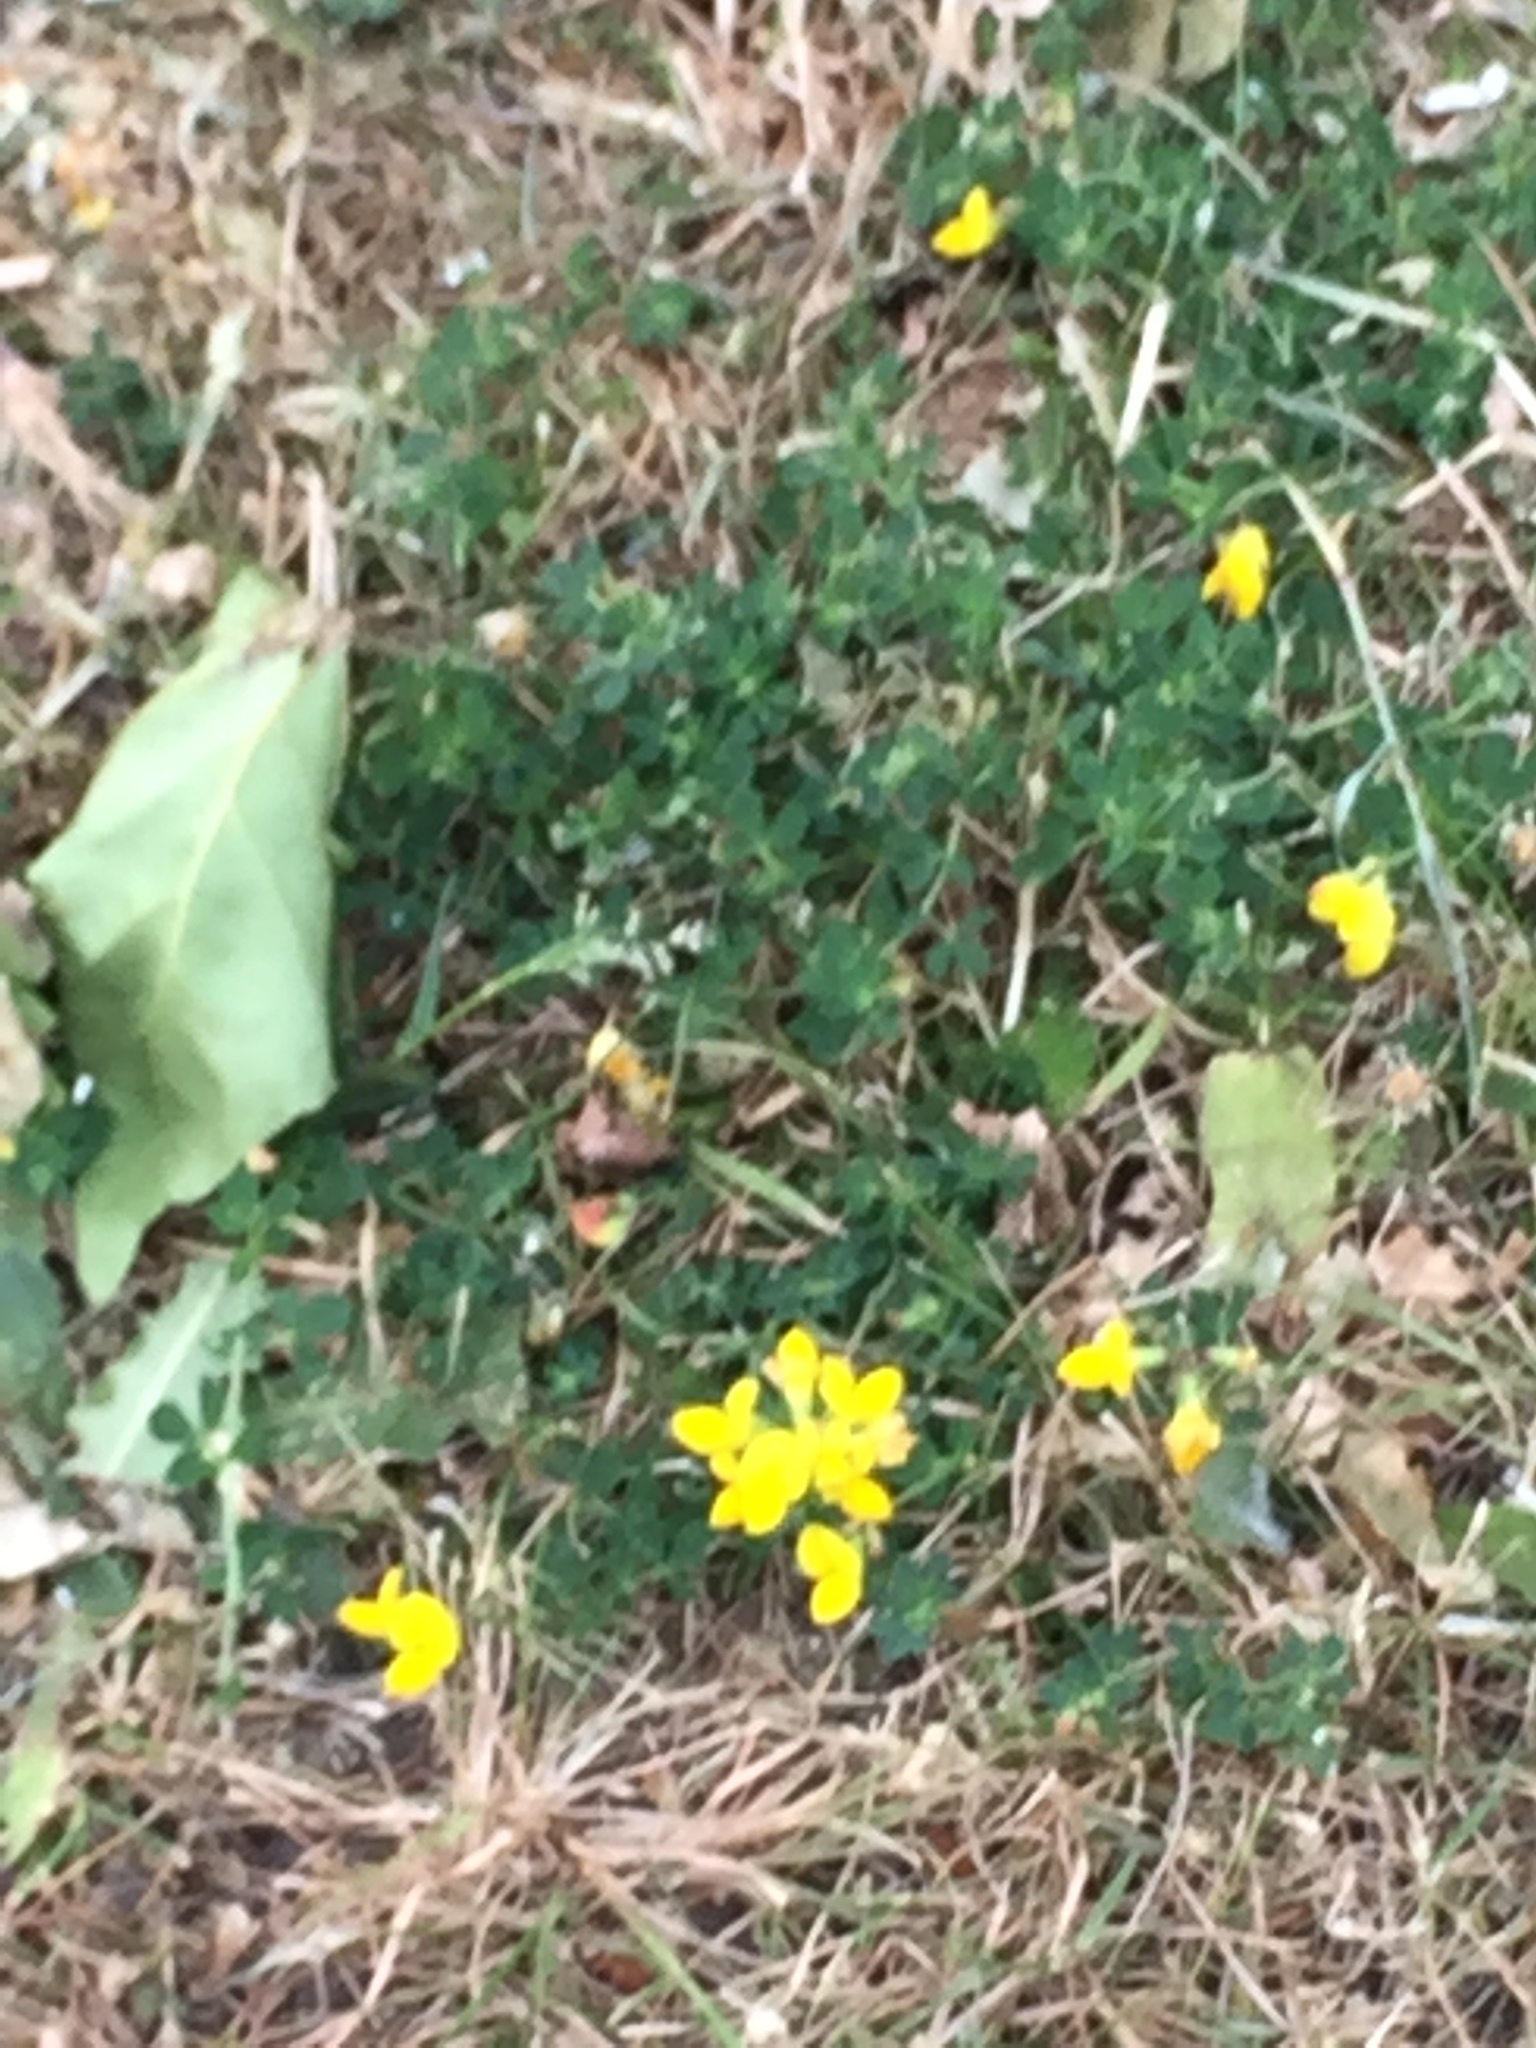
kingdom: Plantae
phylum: Tracheophyta
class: Magnoliopsida
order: Fabales
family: Fabaceae
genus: Lotus
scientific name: Lotus corniculatus
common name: Common bird's-foot-trefoil
